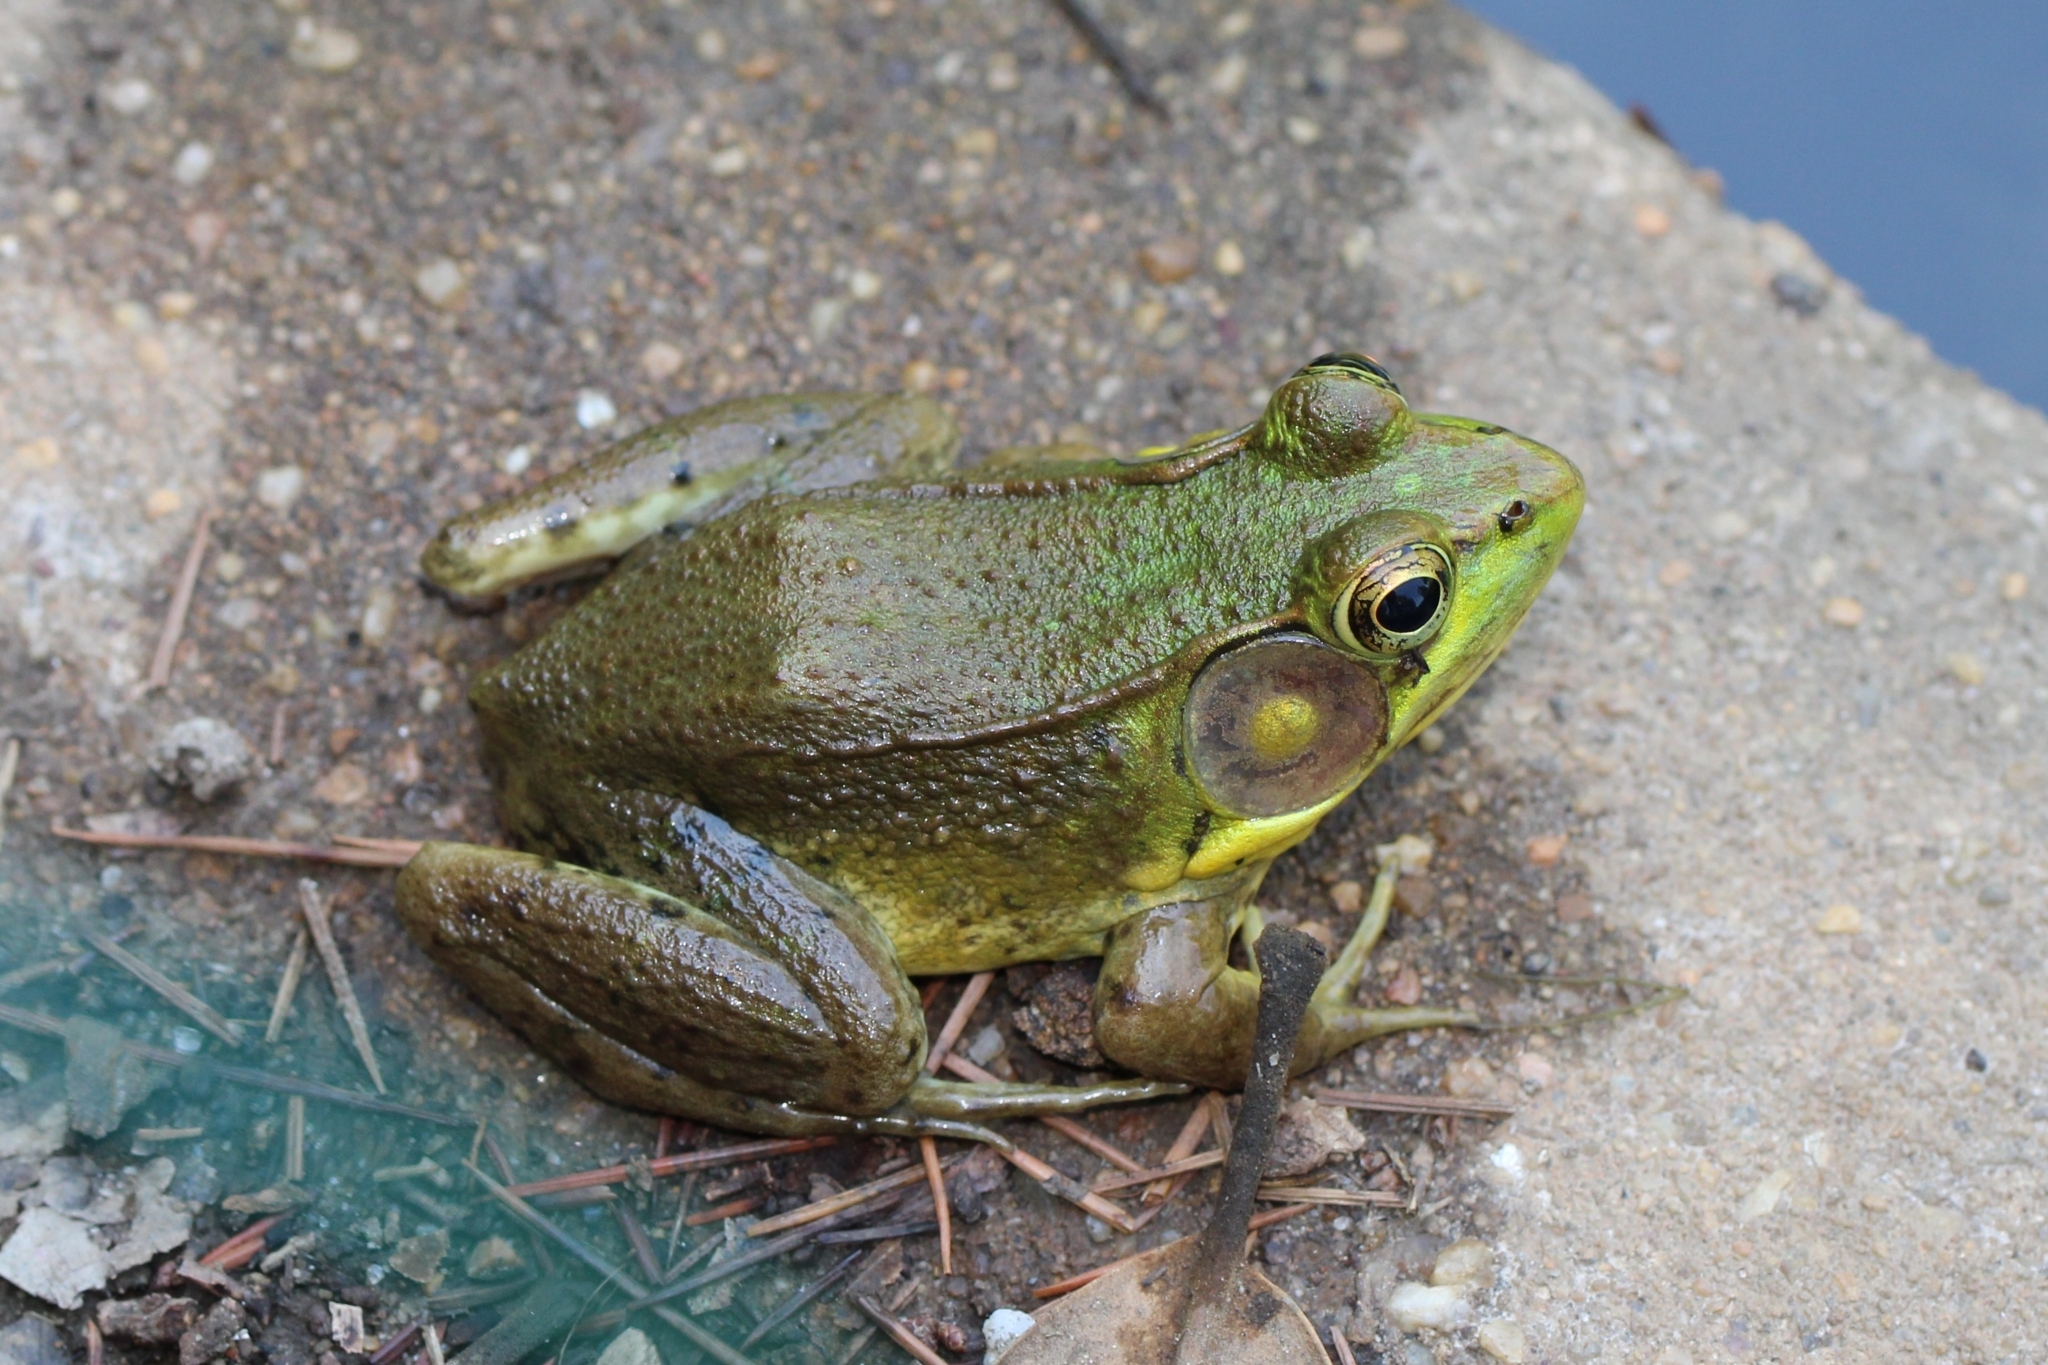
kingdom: Animalia
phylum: Chordata
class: Amphibia
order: Anura
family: Ranidae
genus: Lithobates
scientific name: Lithobates clamitans
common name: Green frog
